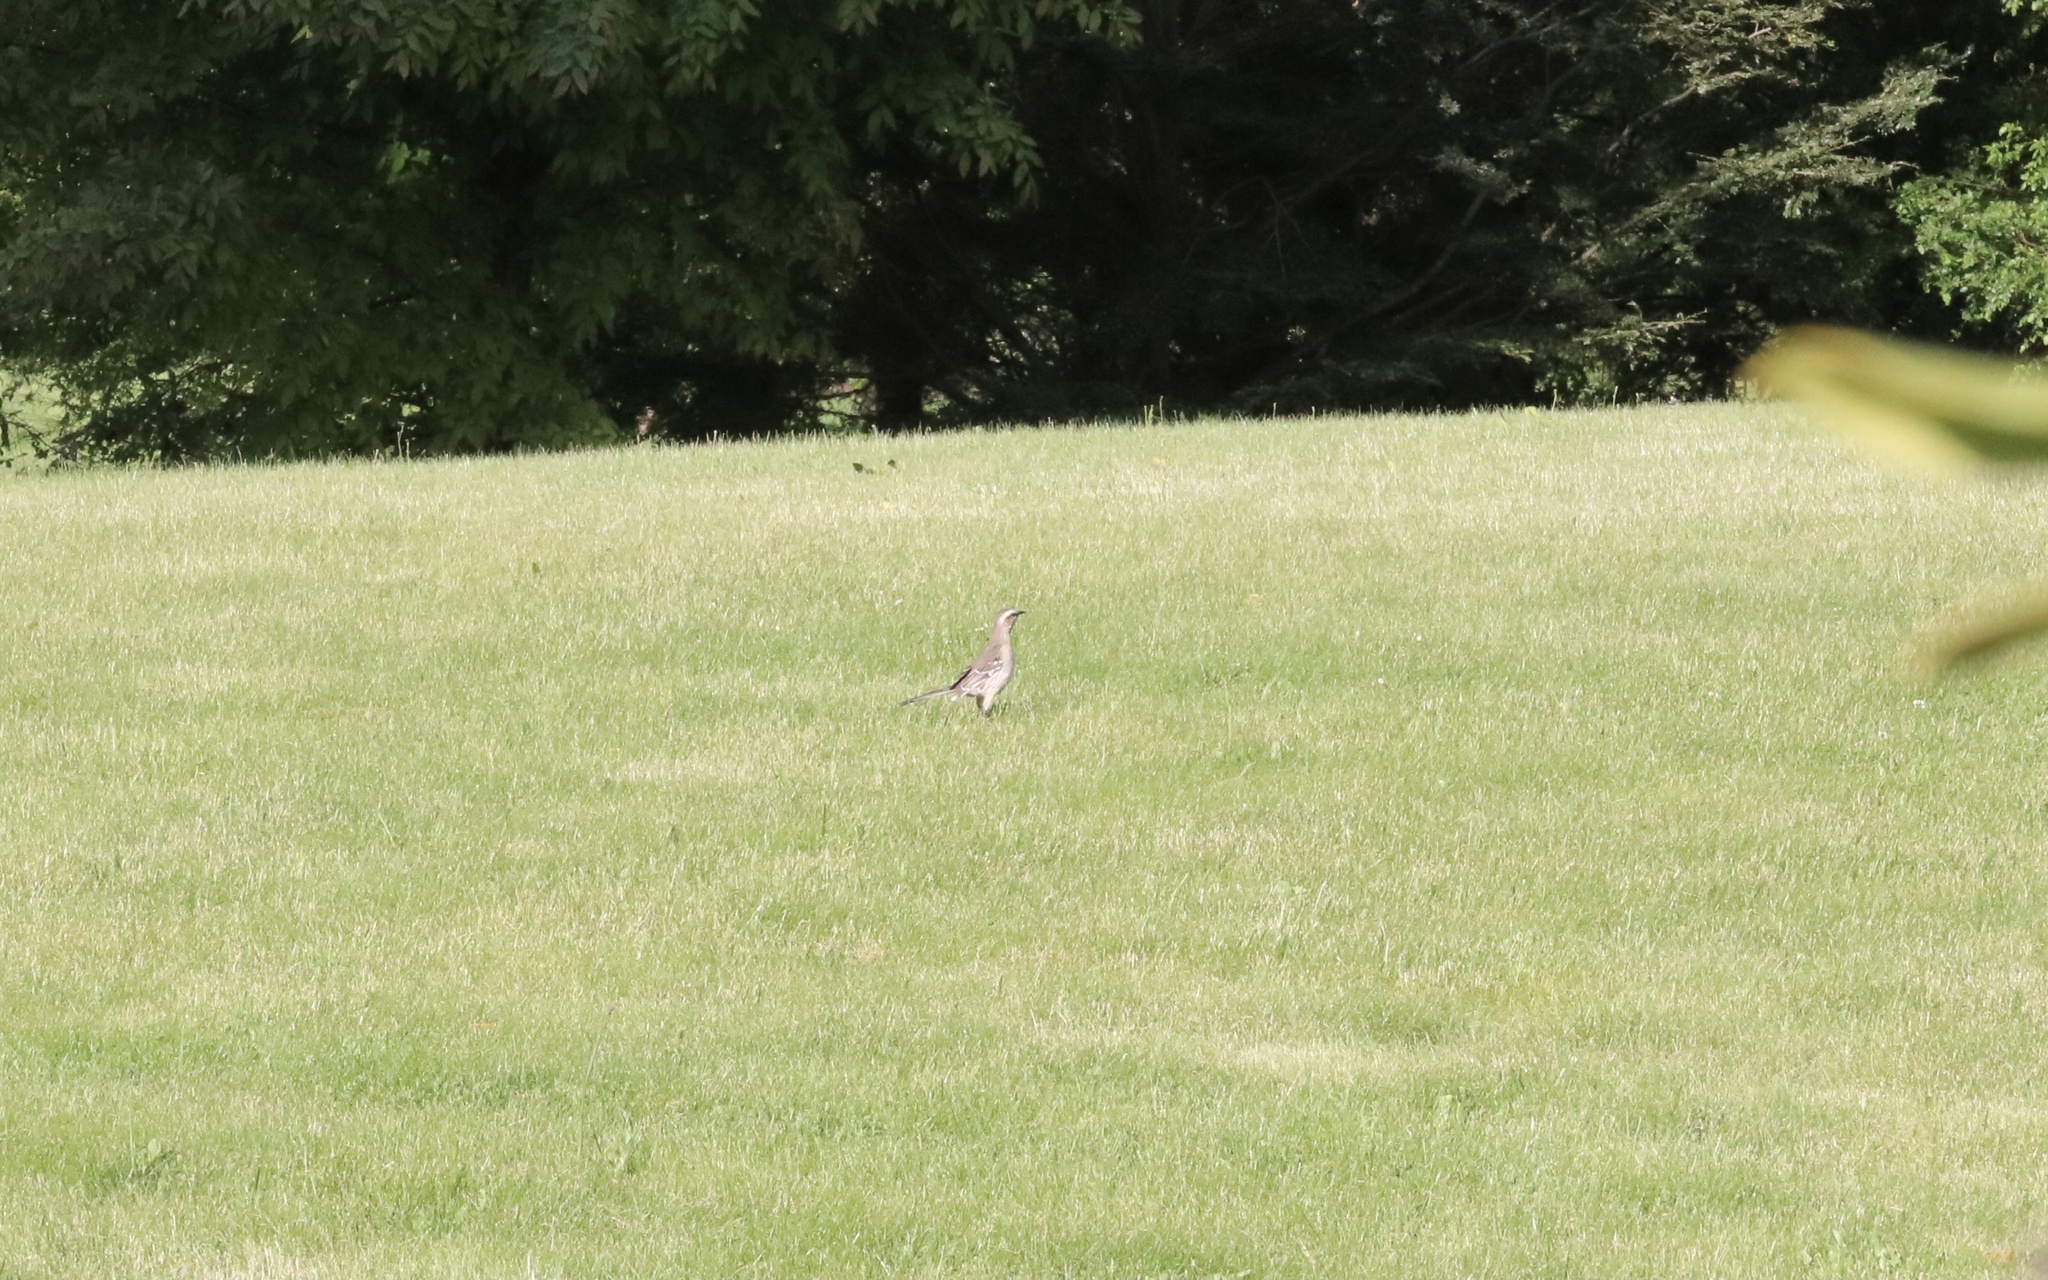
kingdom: Animalia
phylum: Chordata
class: Aves
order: Passeriformes
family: Mimidae
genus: Mimus
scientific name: Mimus thenca
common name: Chilean mockingbird
